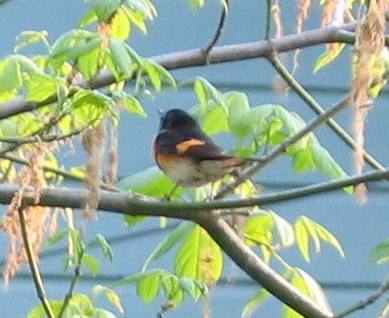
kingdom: Animalia
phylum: Chordata
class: Aves
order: Passeriformes
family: Parulidae
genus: Setophaga
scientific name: Setophaga ruticilla
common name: American redstart
